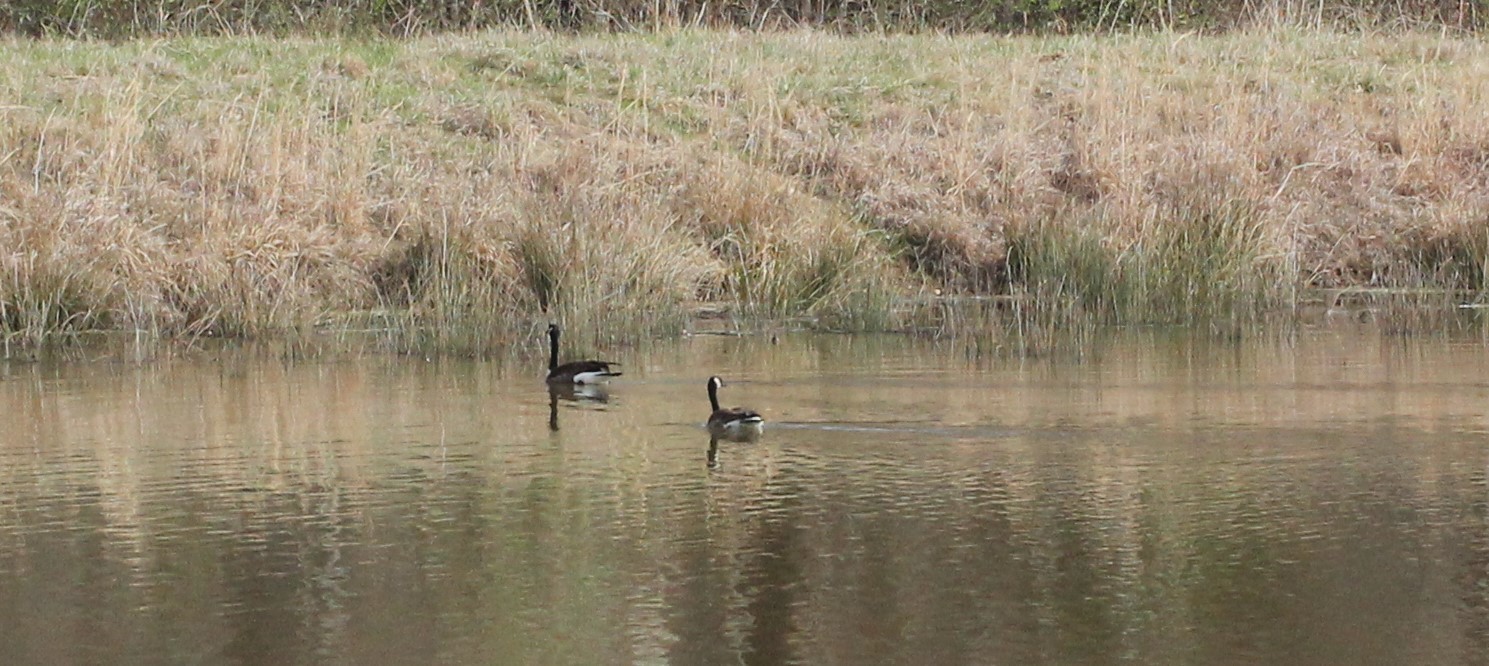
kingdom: Animalia
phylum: Chordata
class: Aves
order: Anseriformes
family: Anatidae
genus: Branta
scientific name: Branta canadensis
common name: Canada goose
